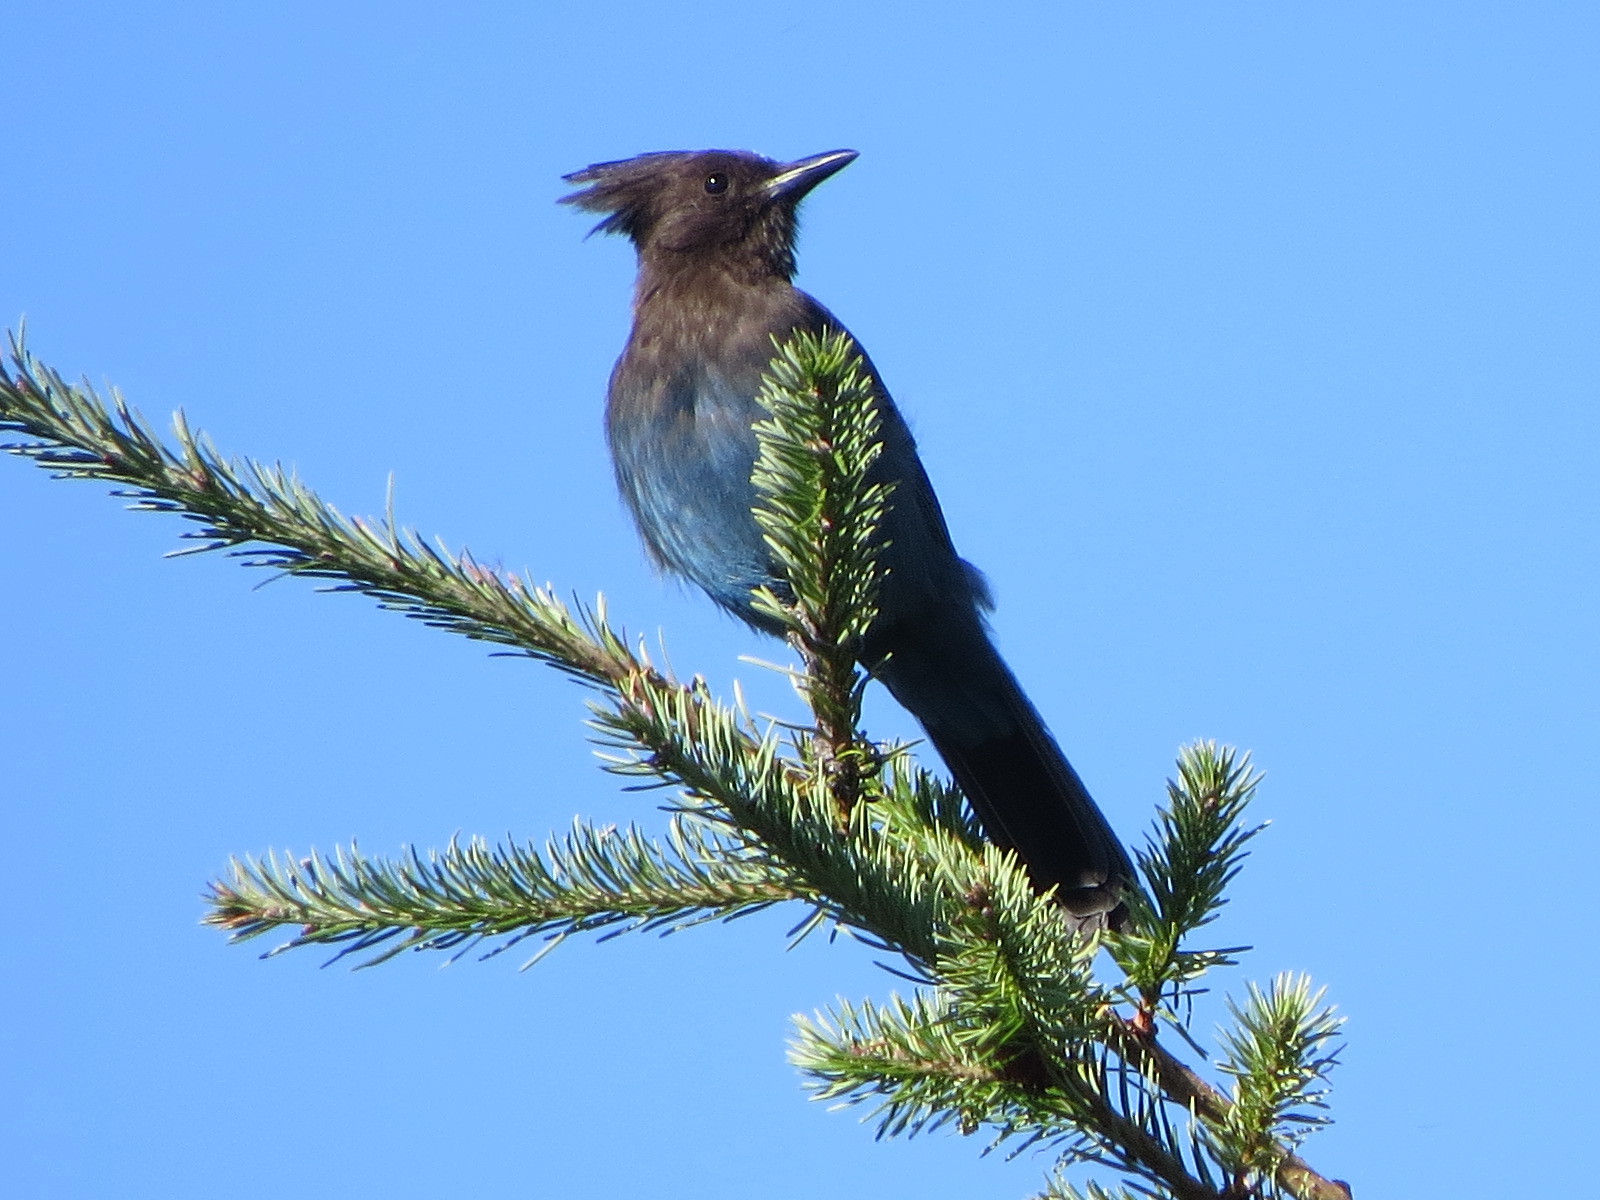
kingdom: Animalia
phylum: Chordata
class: Aves
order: Passeriformes
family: Corvidae
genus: Cyanocitta
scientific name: Cyanocitta stelleri
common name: Steller's jay
